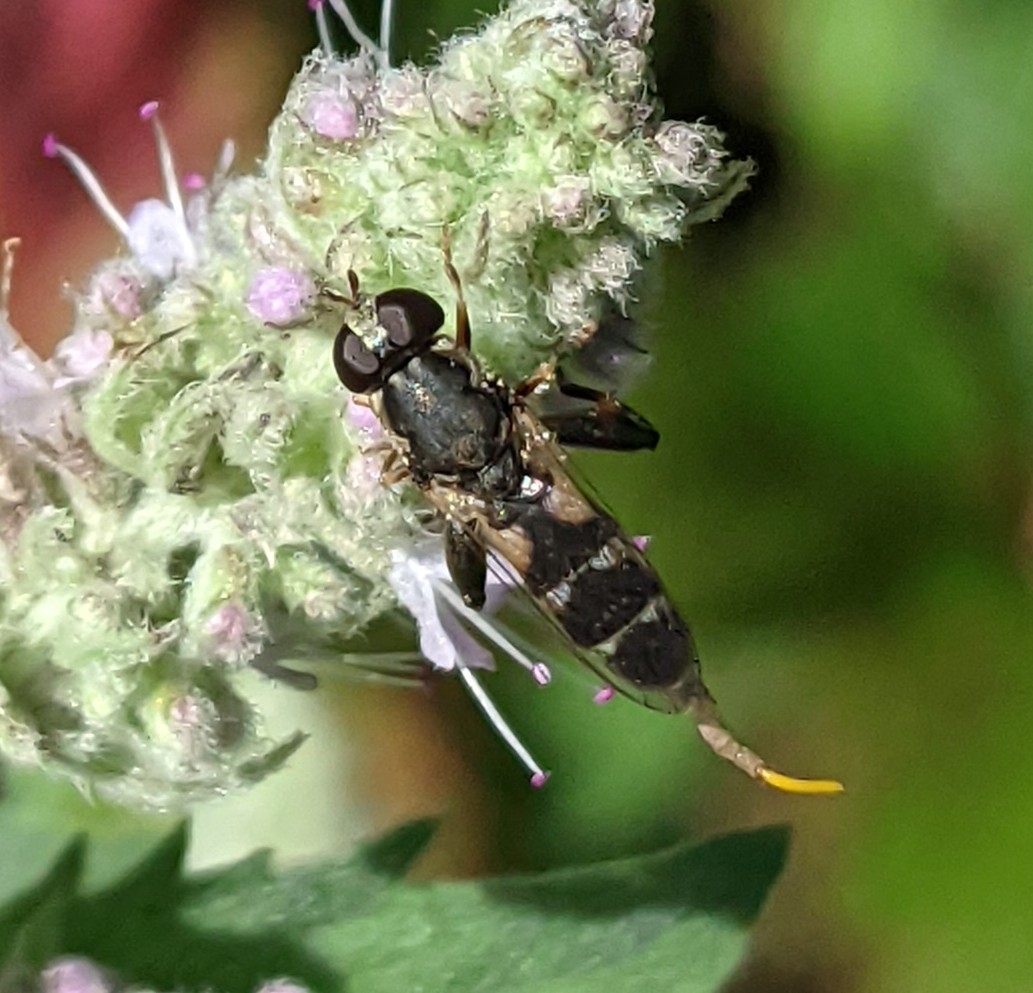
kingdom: Animalia
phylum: Arthropoda
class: Insecta
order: Diptera
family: Syrphidae
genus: Syritta
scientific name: Syritta pipiens
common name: Hover fly
